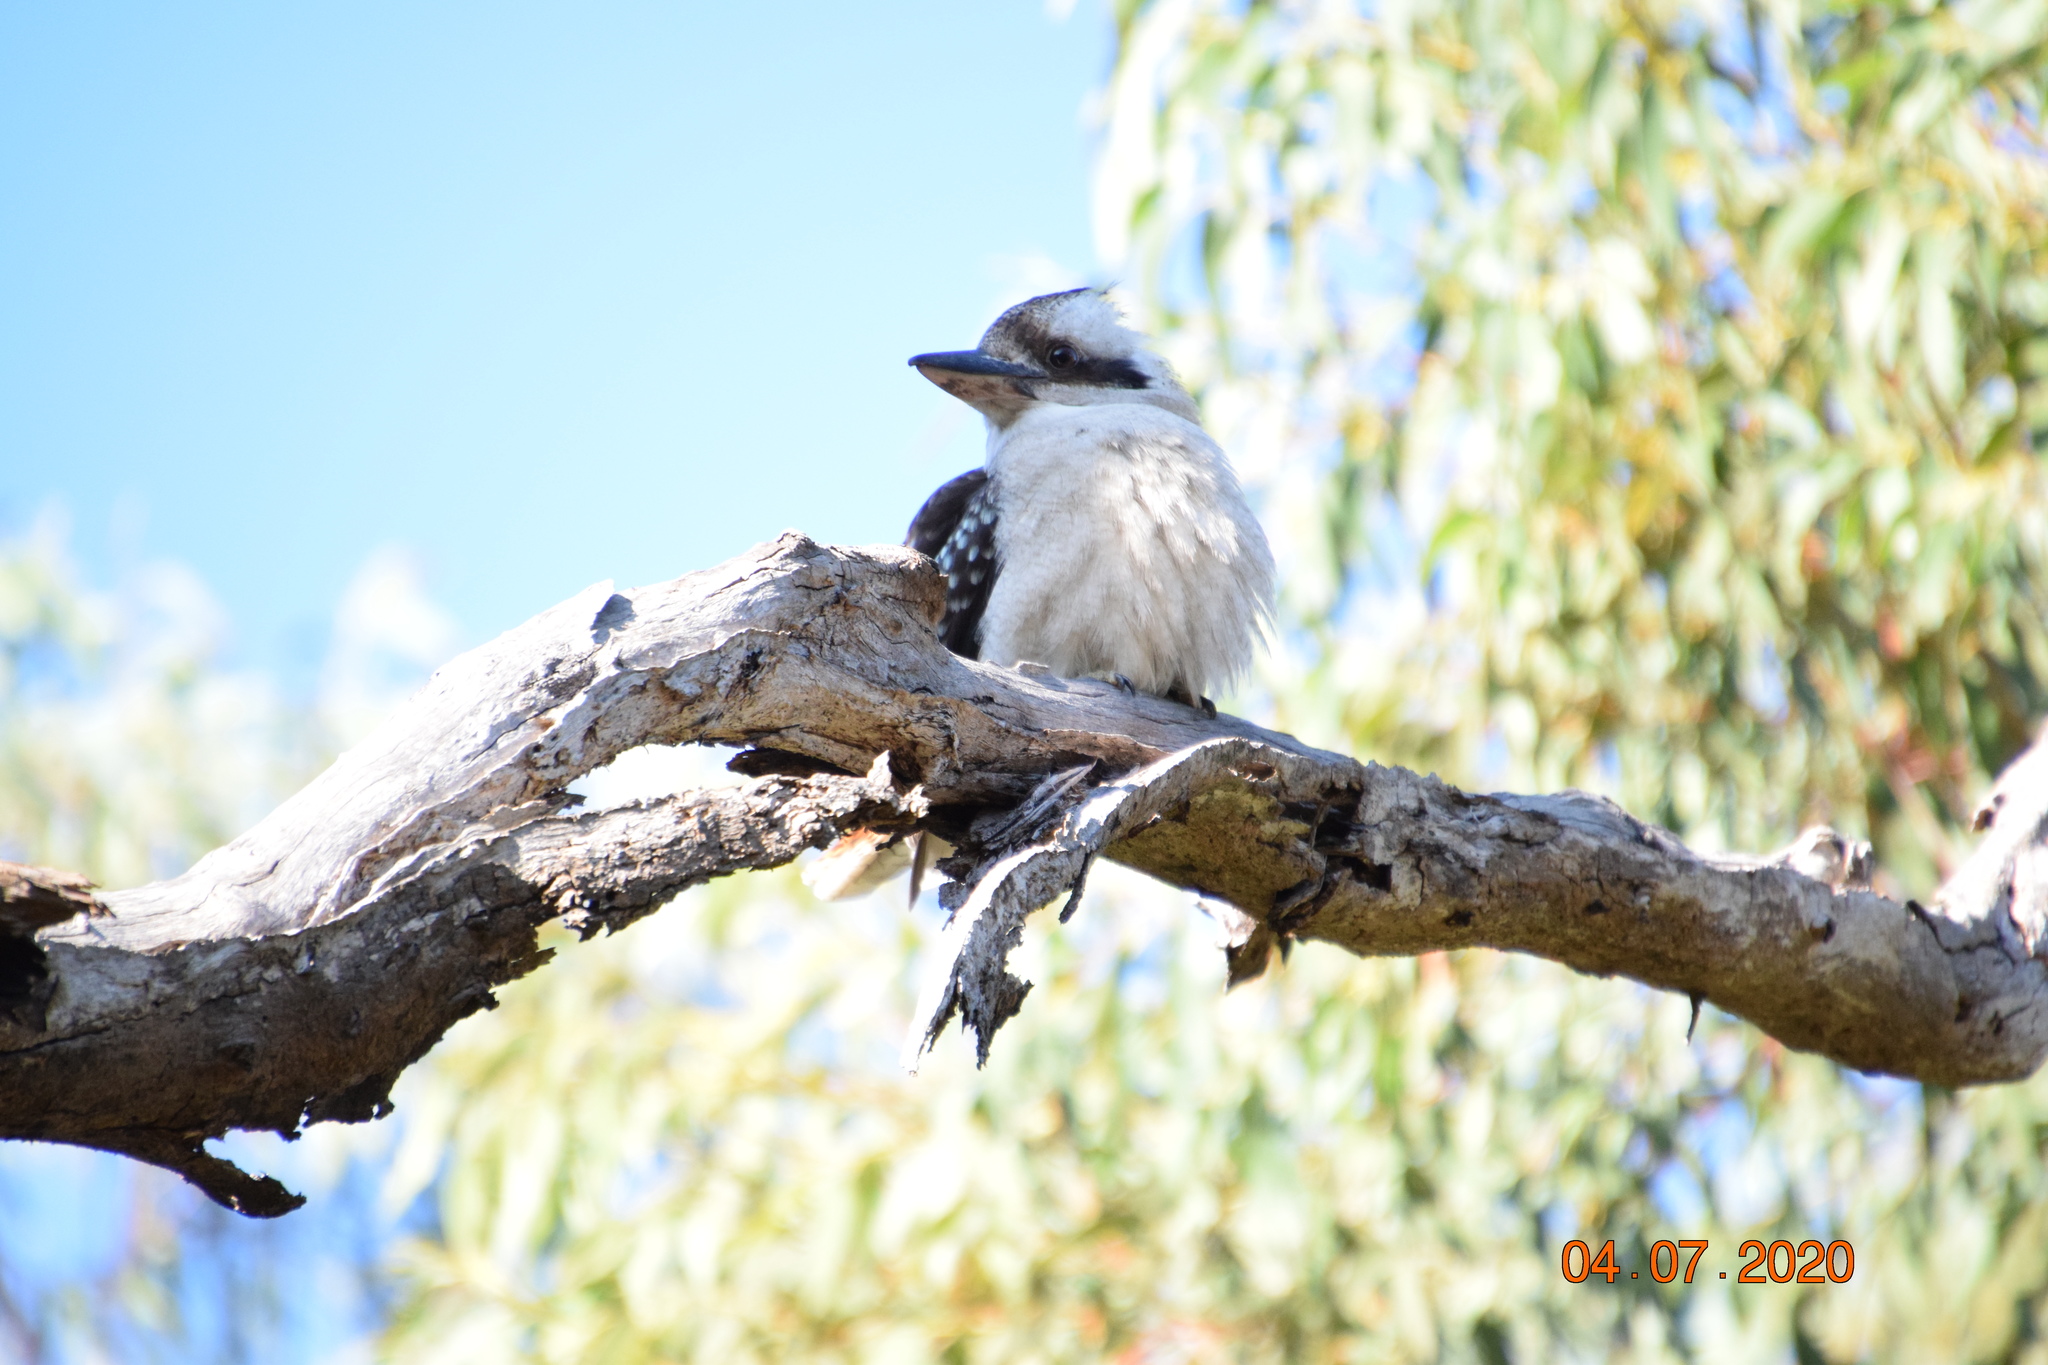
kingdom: Animalia
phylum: Chordata
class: Aves
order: Coraciiformes
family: Alcedinidae
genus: Dacelo
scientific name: Dacelo novaeguineae
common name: Laughing kookaburra
